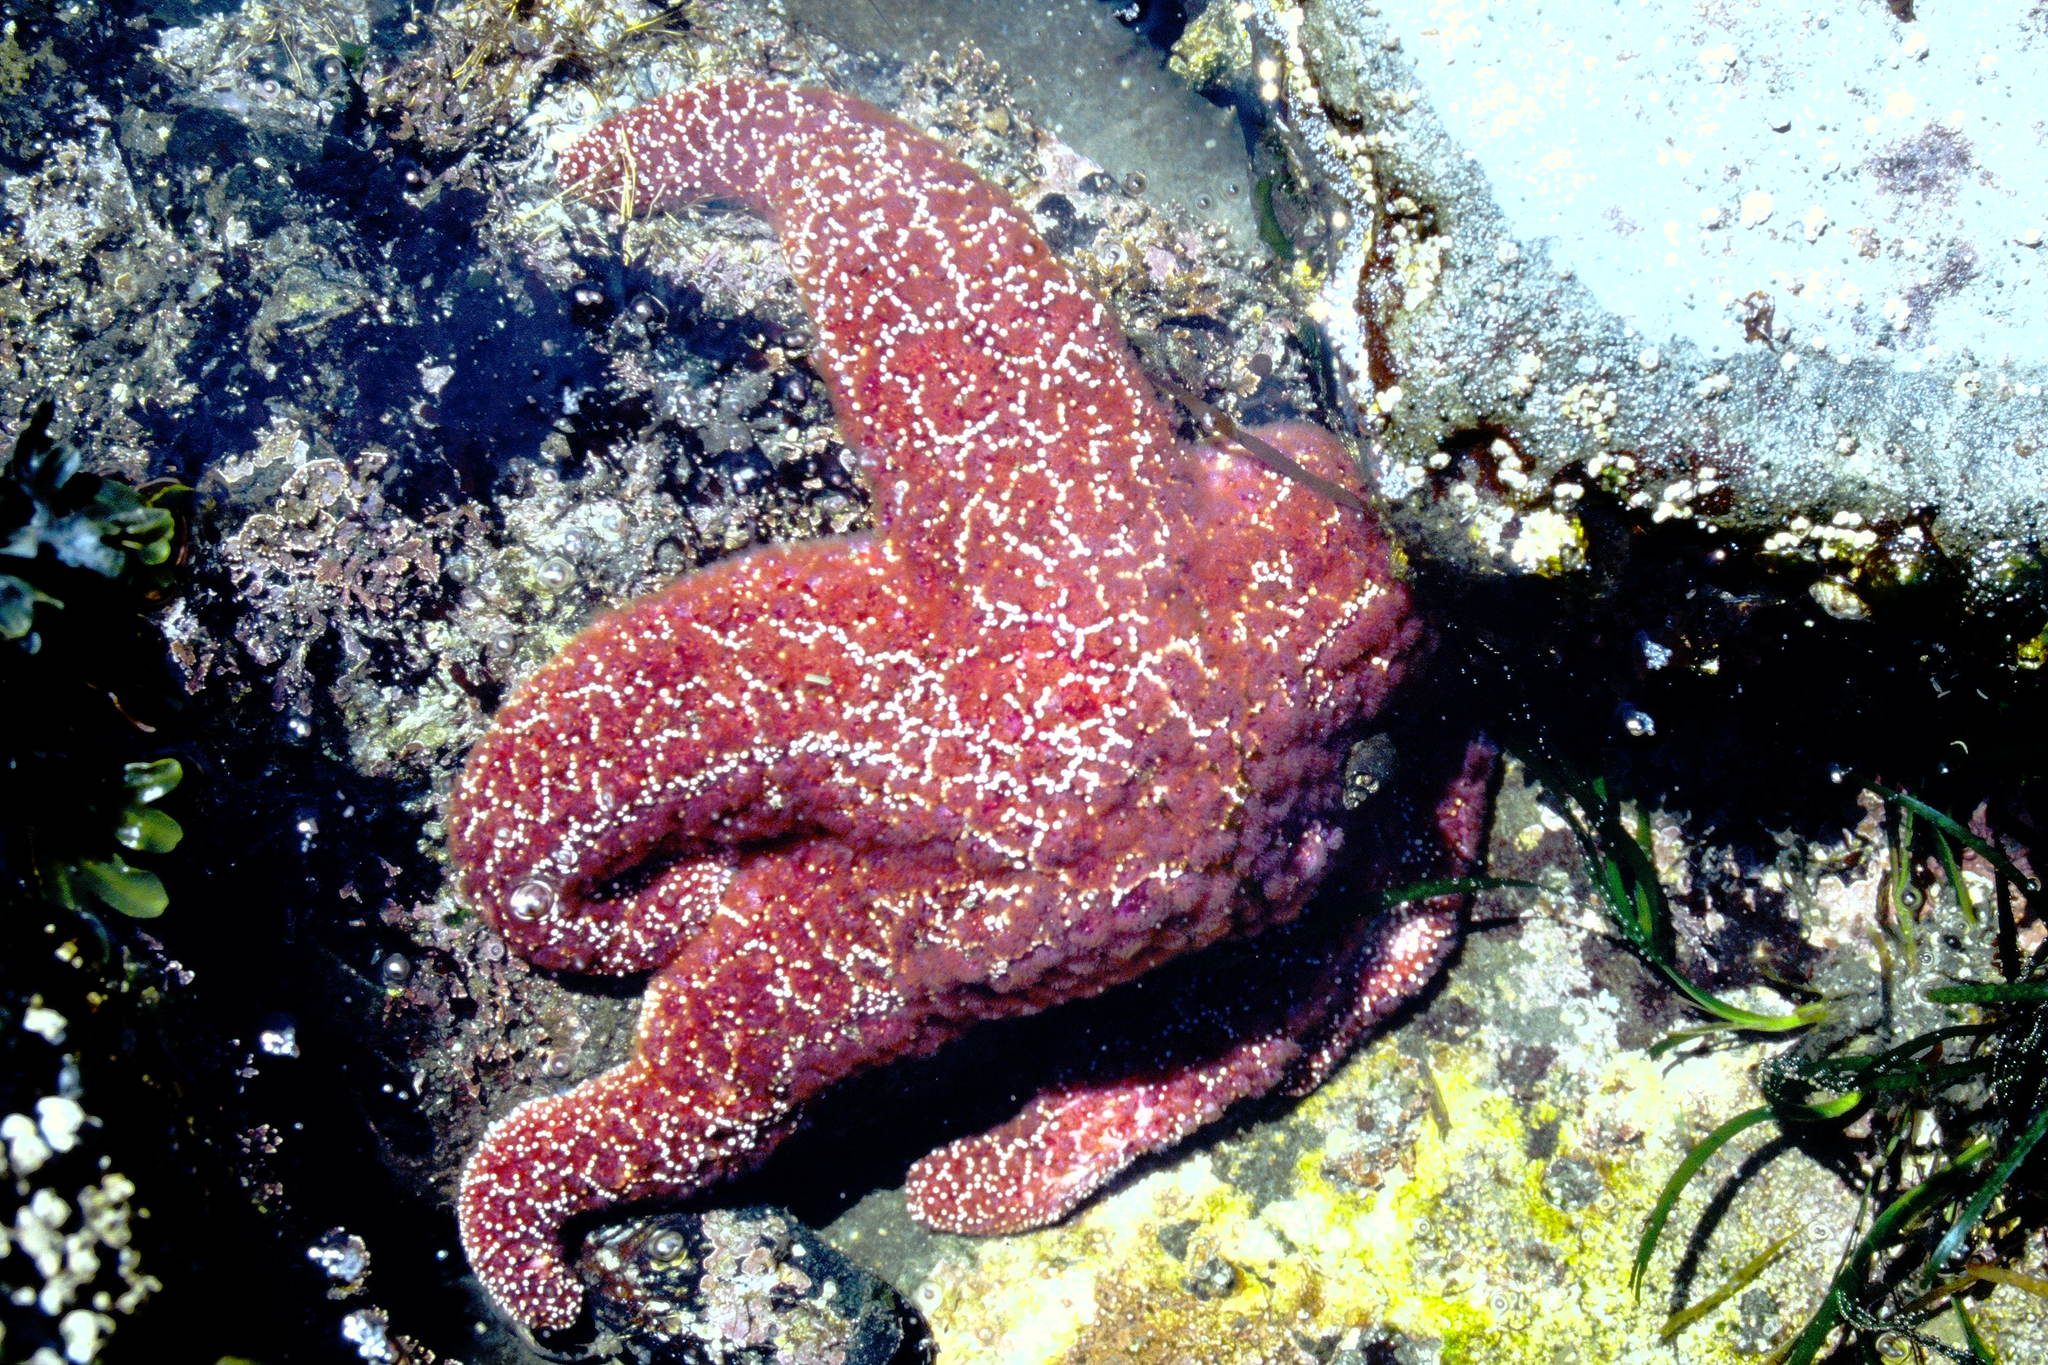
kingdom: Animalia
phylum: Echinodermata
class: Asteroidea
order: Forcipulatida
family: Asteriidae
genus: Pisaster
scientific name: Pisaster ochraceus
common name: Ochre stars
